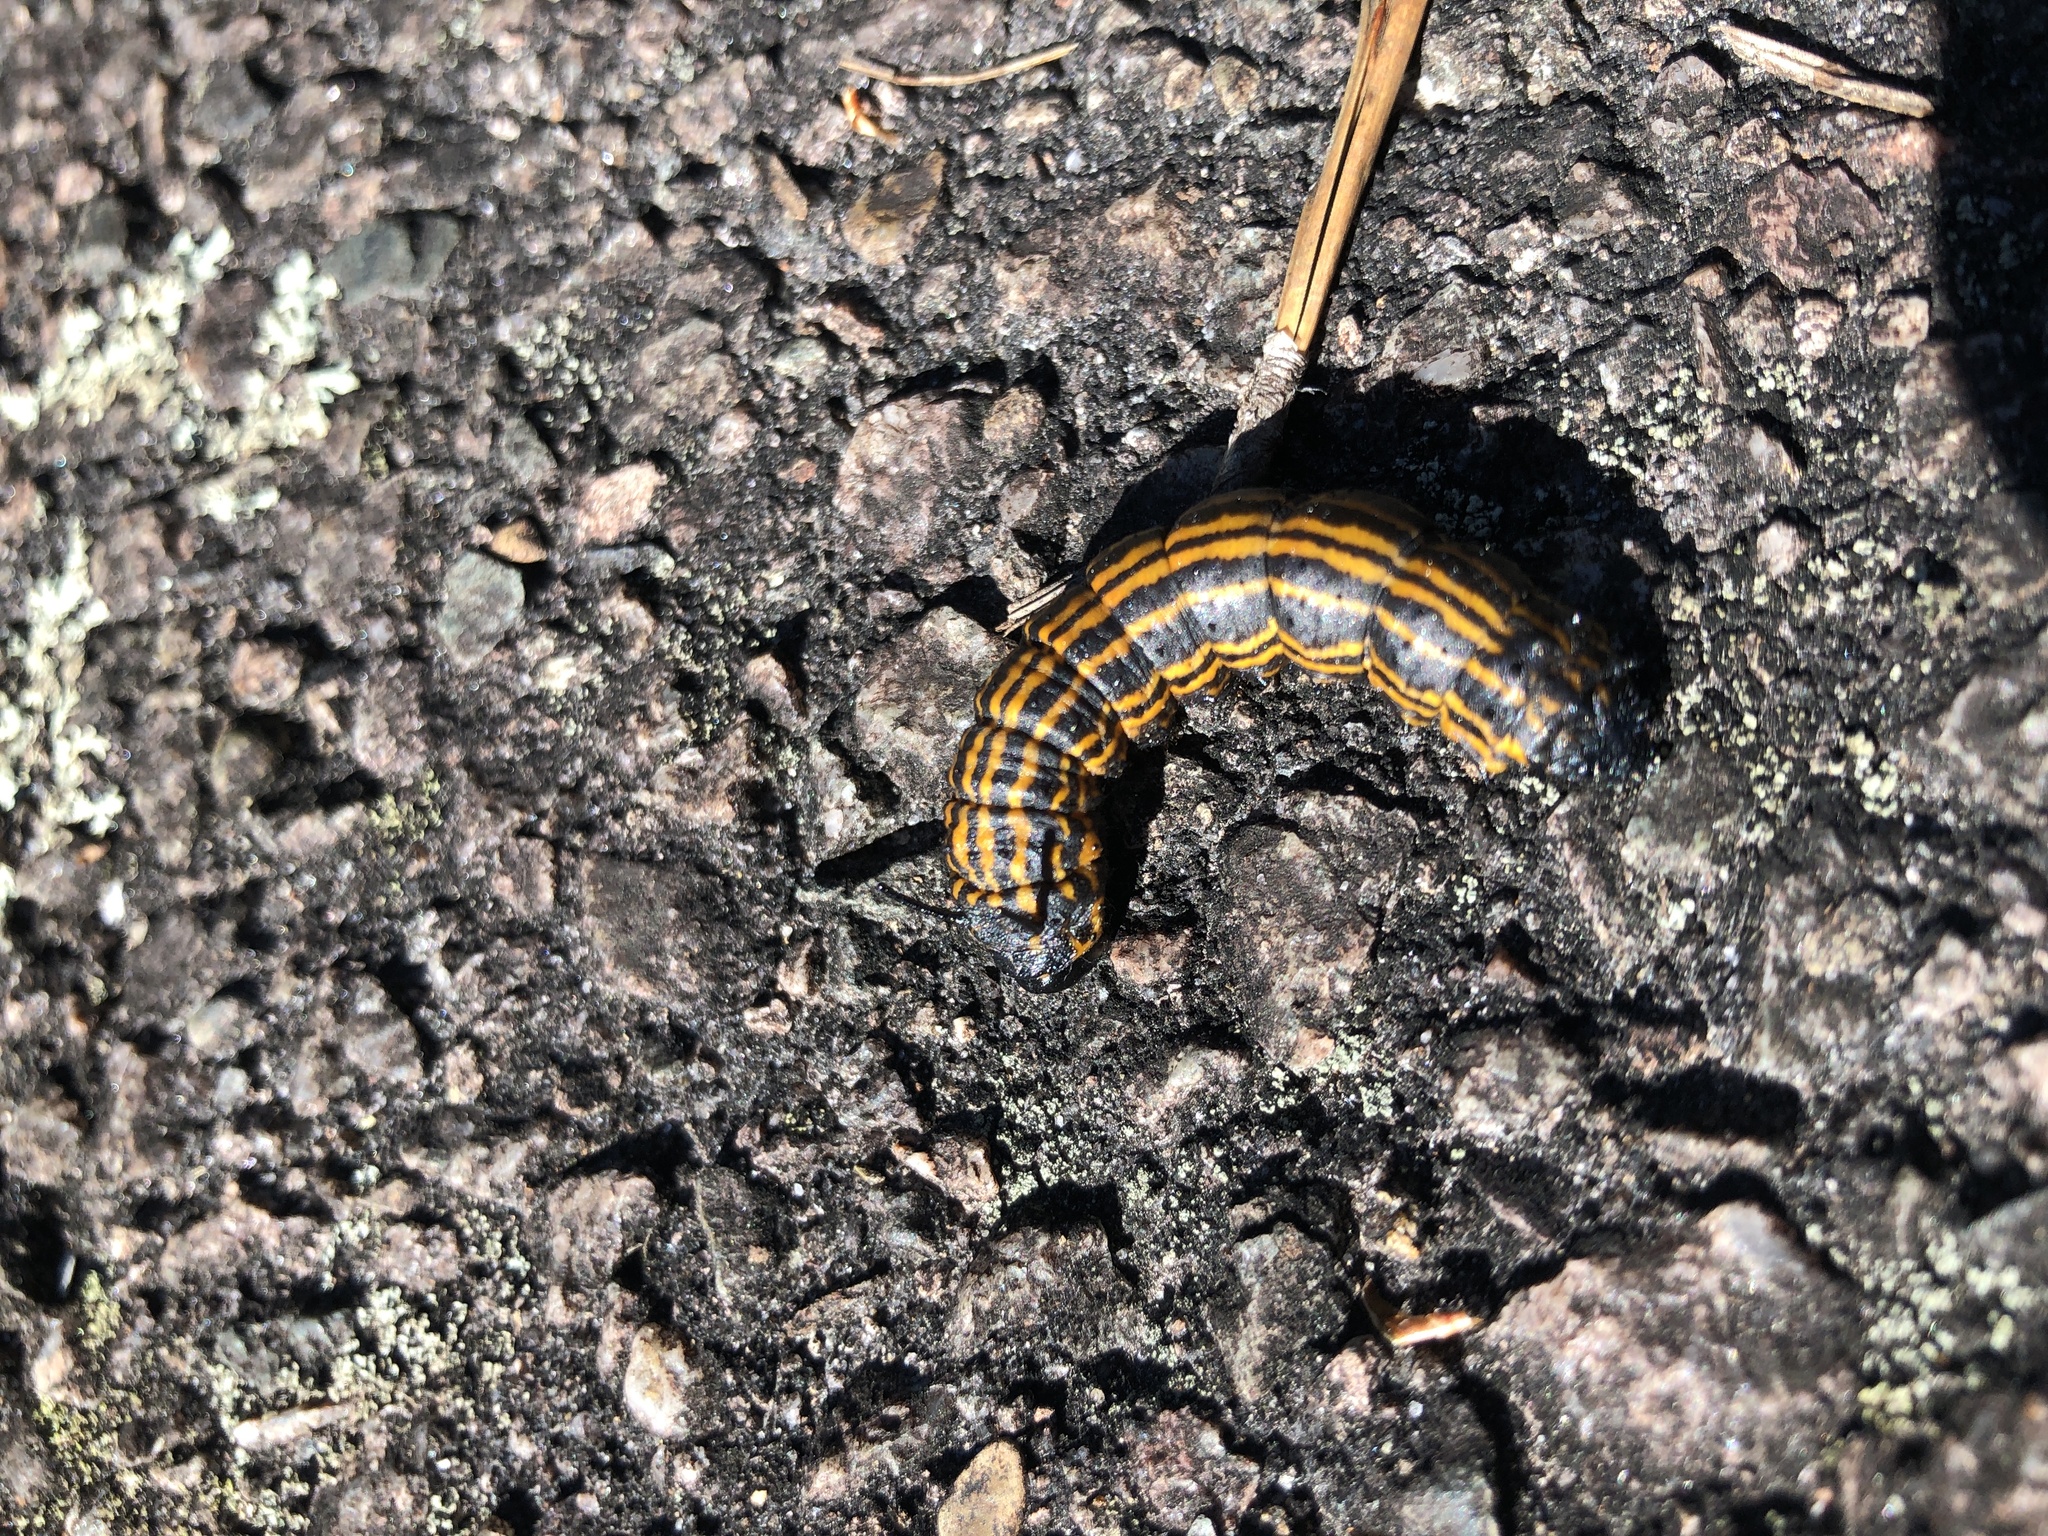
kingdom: Animalia
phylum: Arthropoda
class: Insecta
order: Lepidoptera
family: Saturniidae
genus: Anisota
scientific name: Anisota senatoria
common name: Orange-striped oakworm moth
